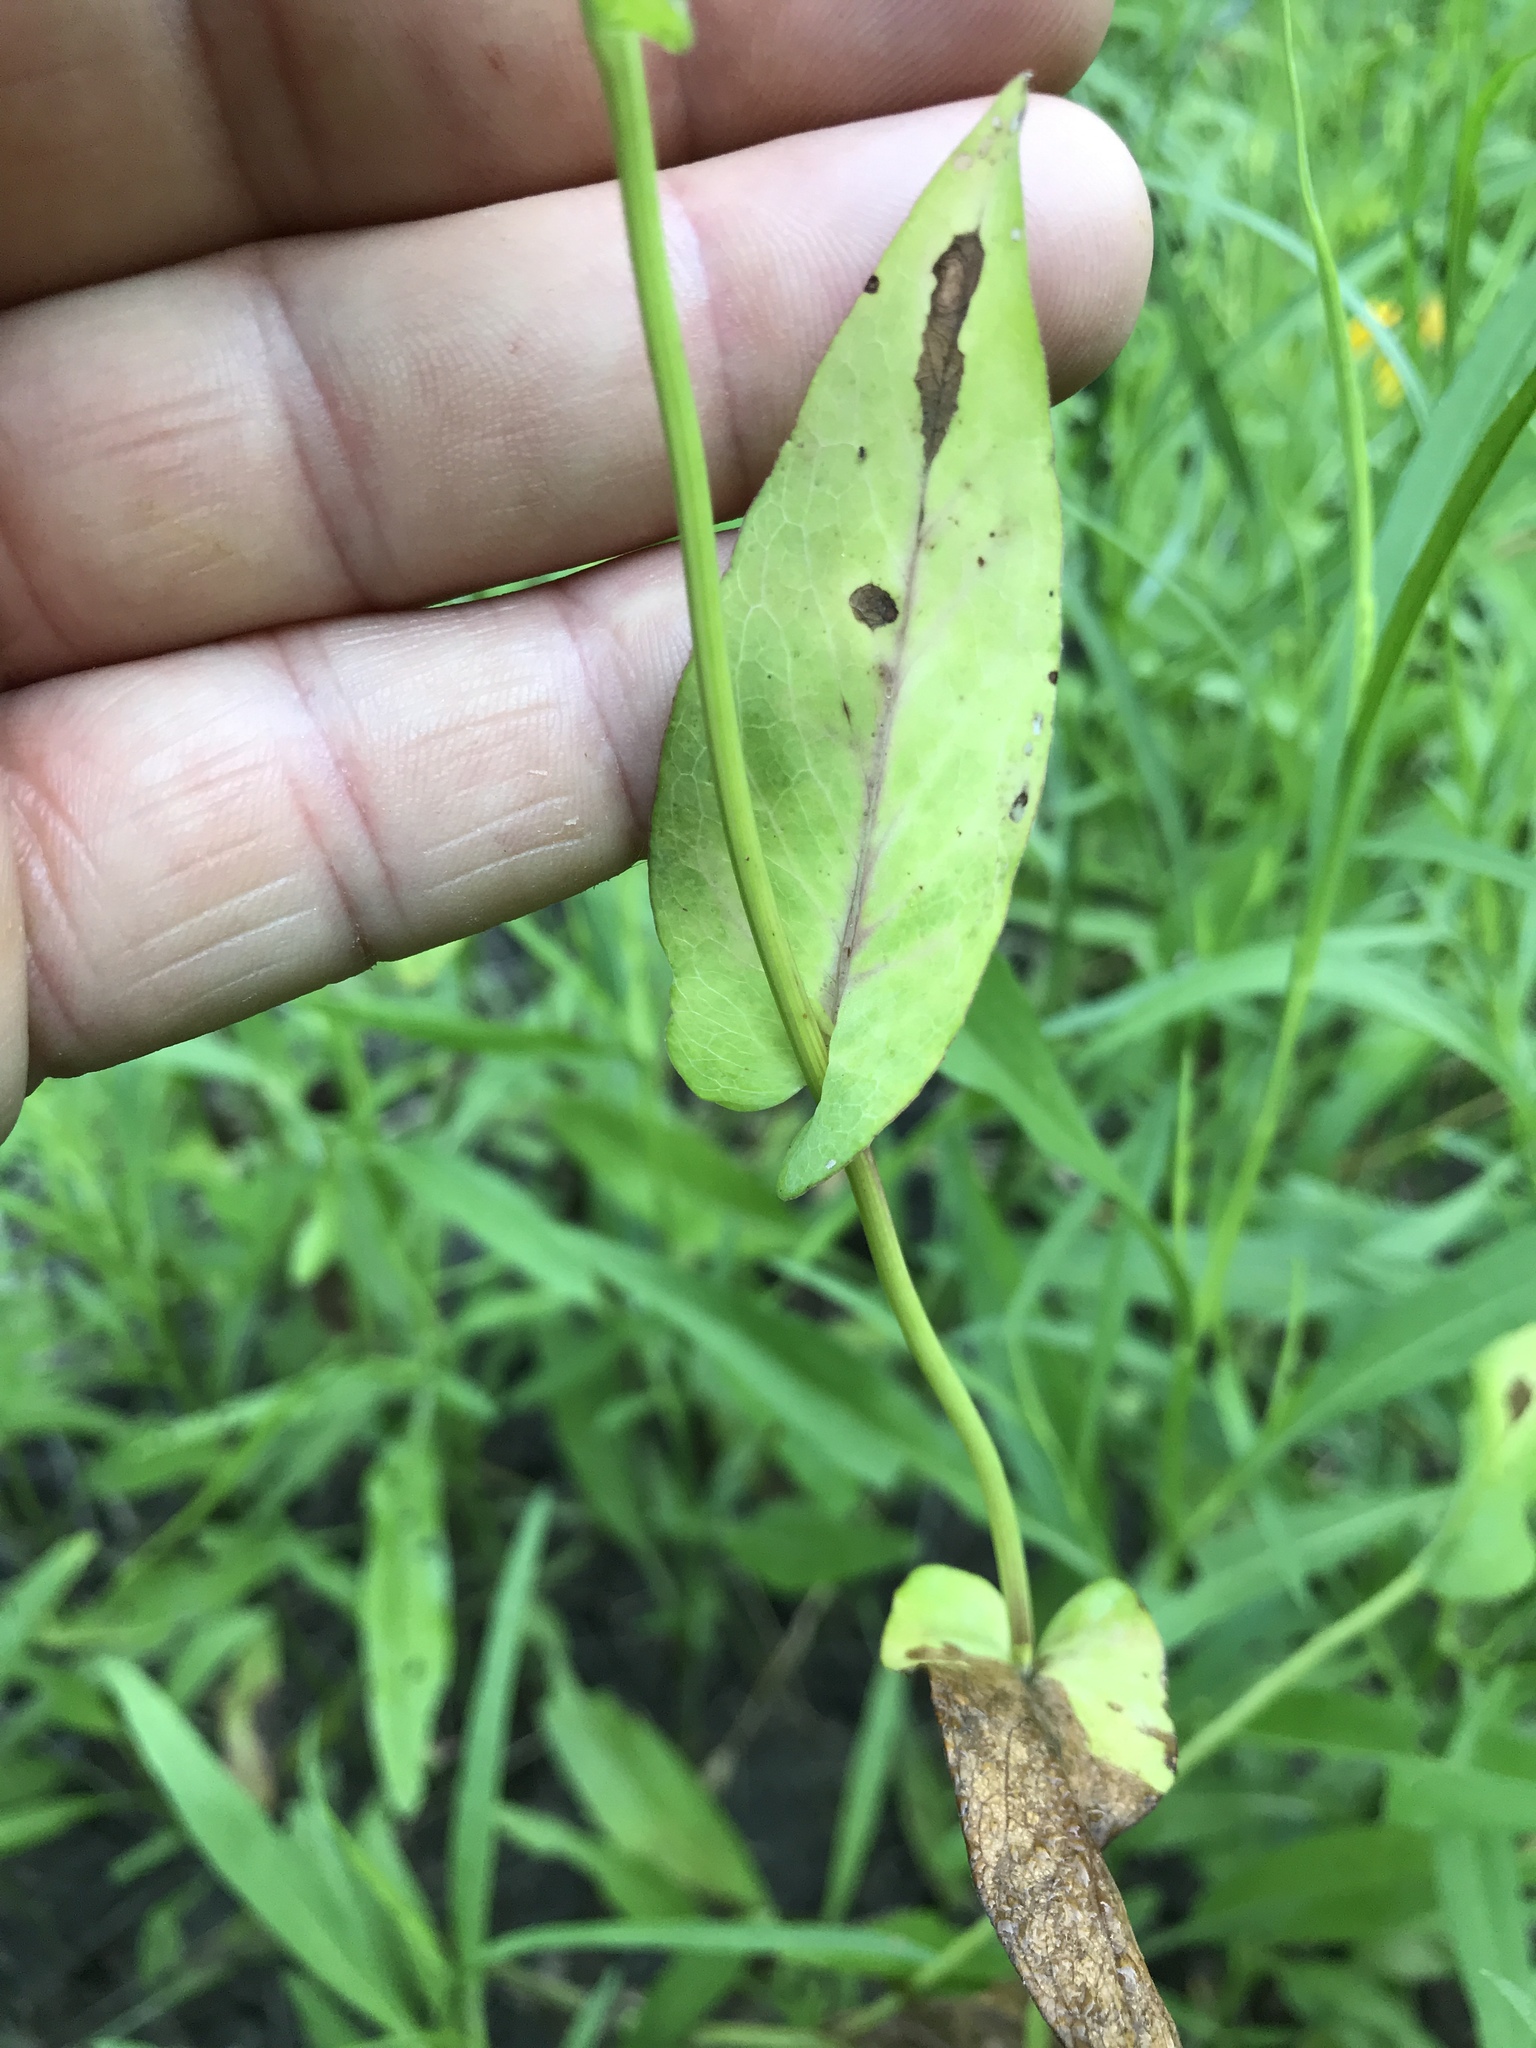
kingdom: Plantae
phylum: Tracheophyta
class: Magnoliopsida
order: Asterales
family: Asteraceae
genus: Rudbeckia
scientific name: Rudbeckia amplexicaulis
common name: Clasping-leaf coneflower
